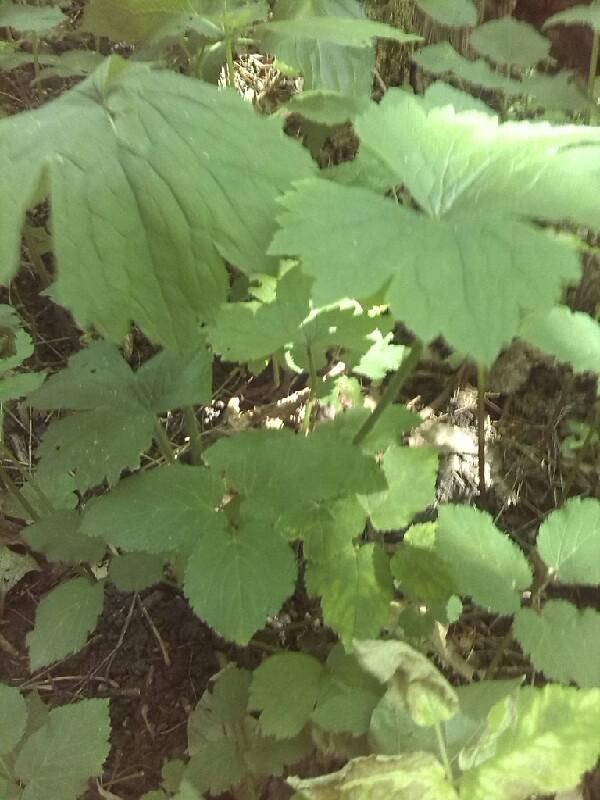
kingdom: Plantae
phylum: Tracheophyta
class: Magnoliopsida
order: Ranunculales
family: Ranunculaceae
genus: Ranunculus
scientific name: Ranunculus lanuginosus
